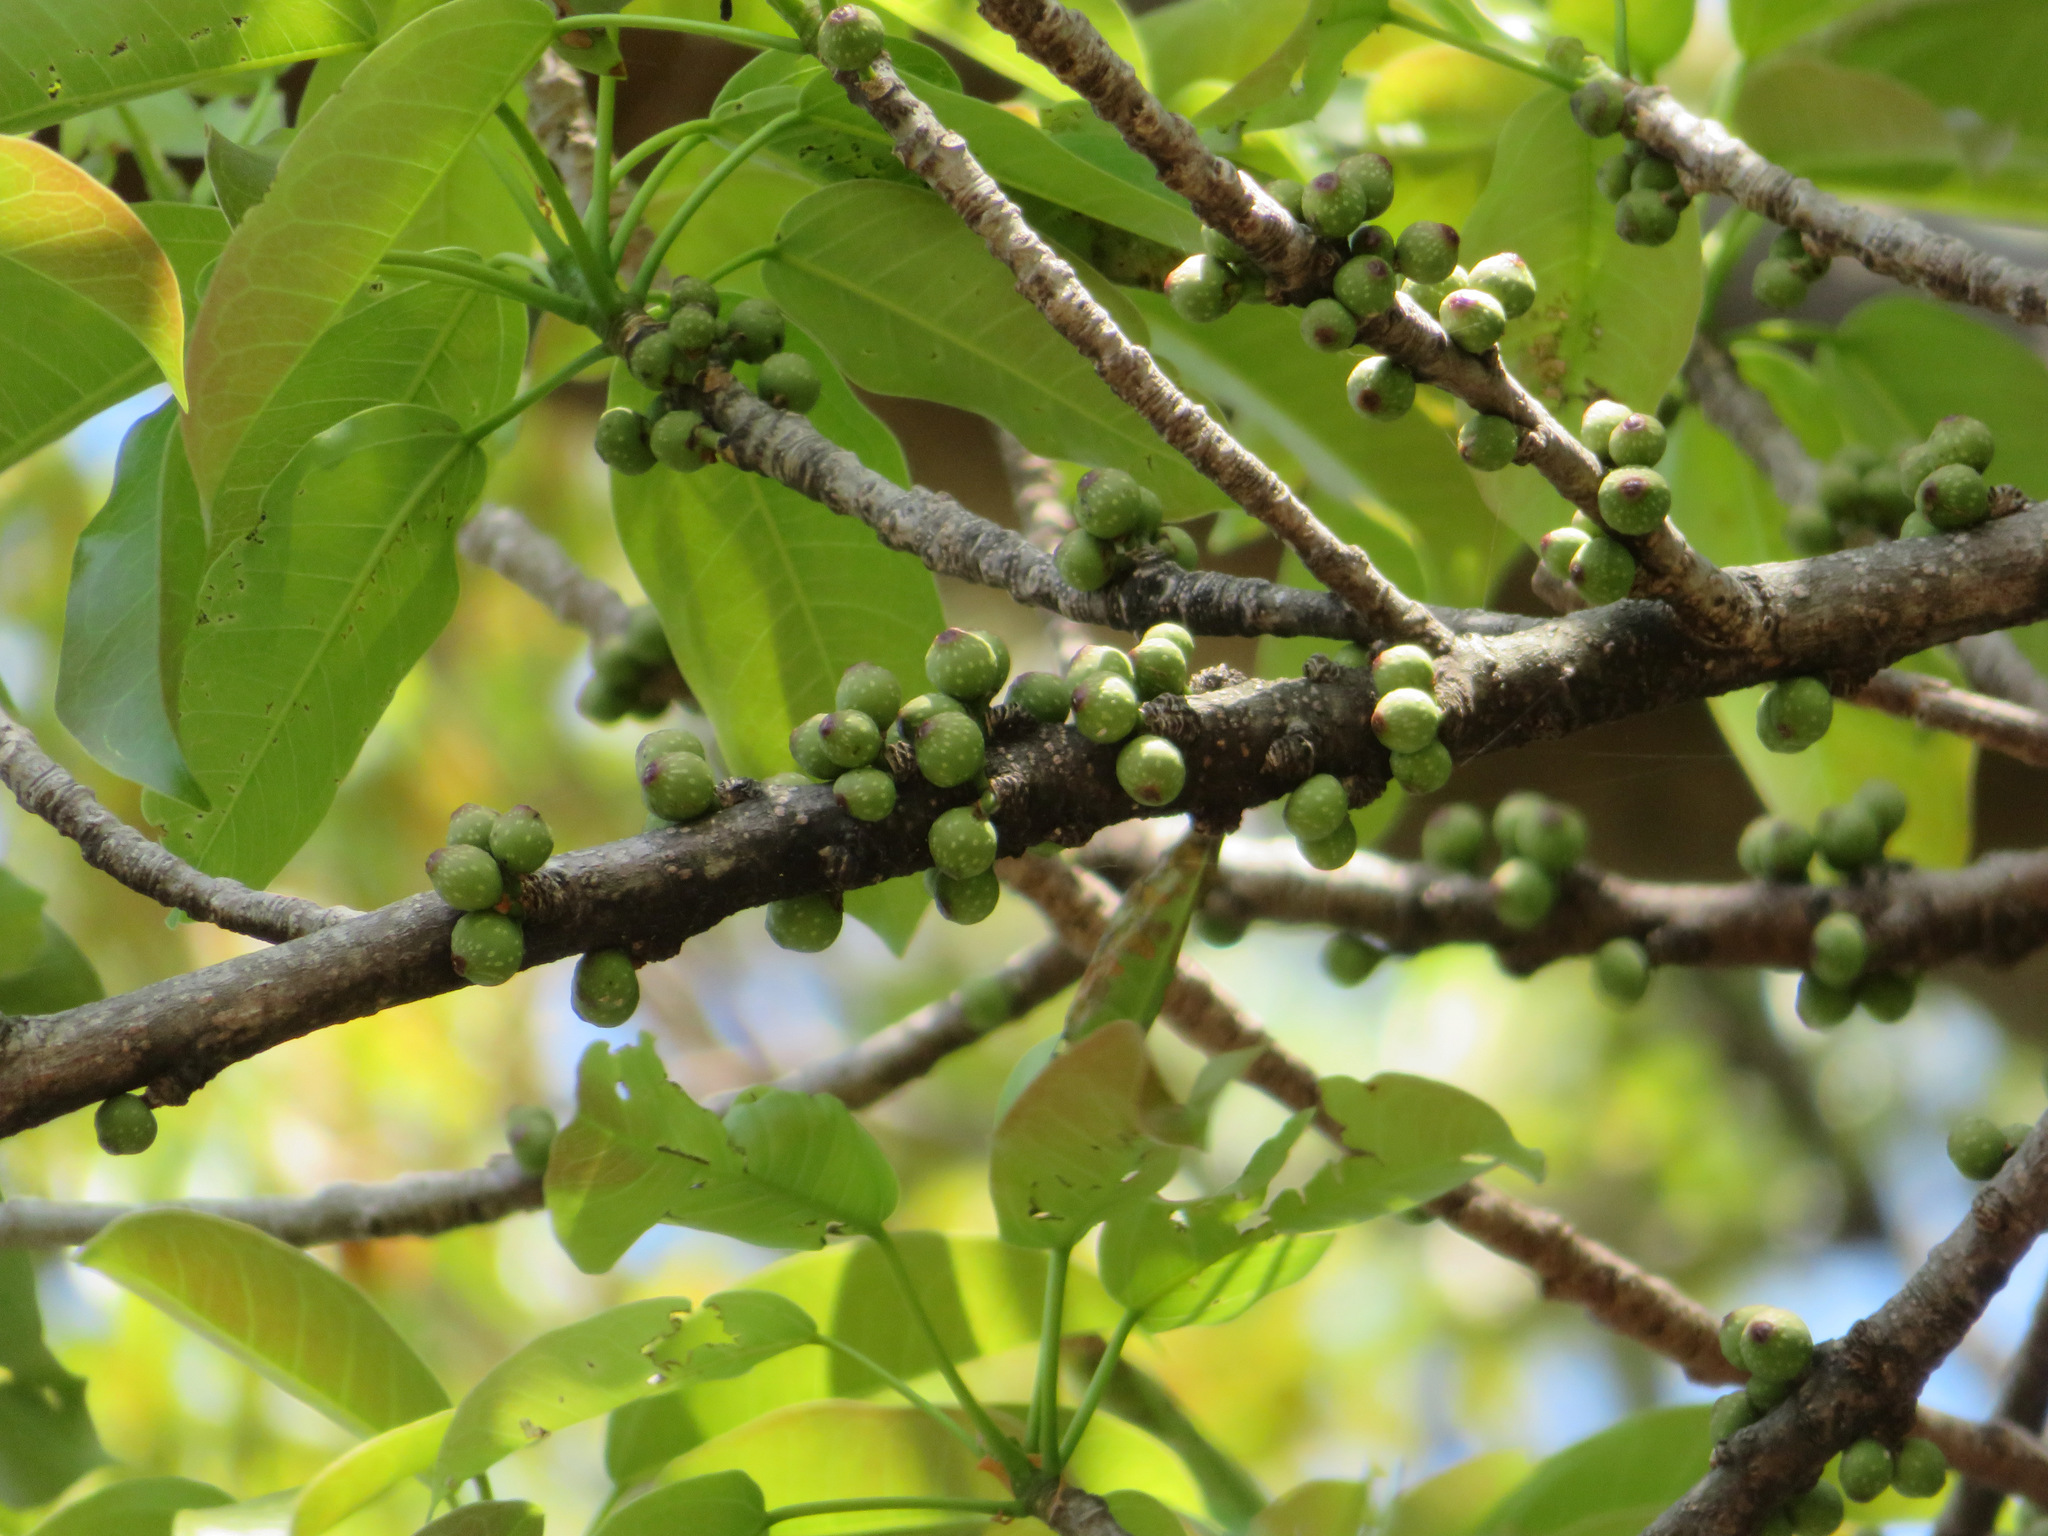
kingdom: Plantae
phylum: Tracheophyta
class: Magnoliopsida
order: Rosales
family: Moraceae
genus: Ficus
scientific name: Ficus subpisocarpa
